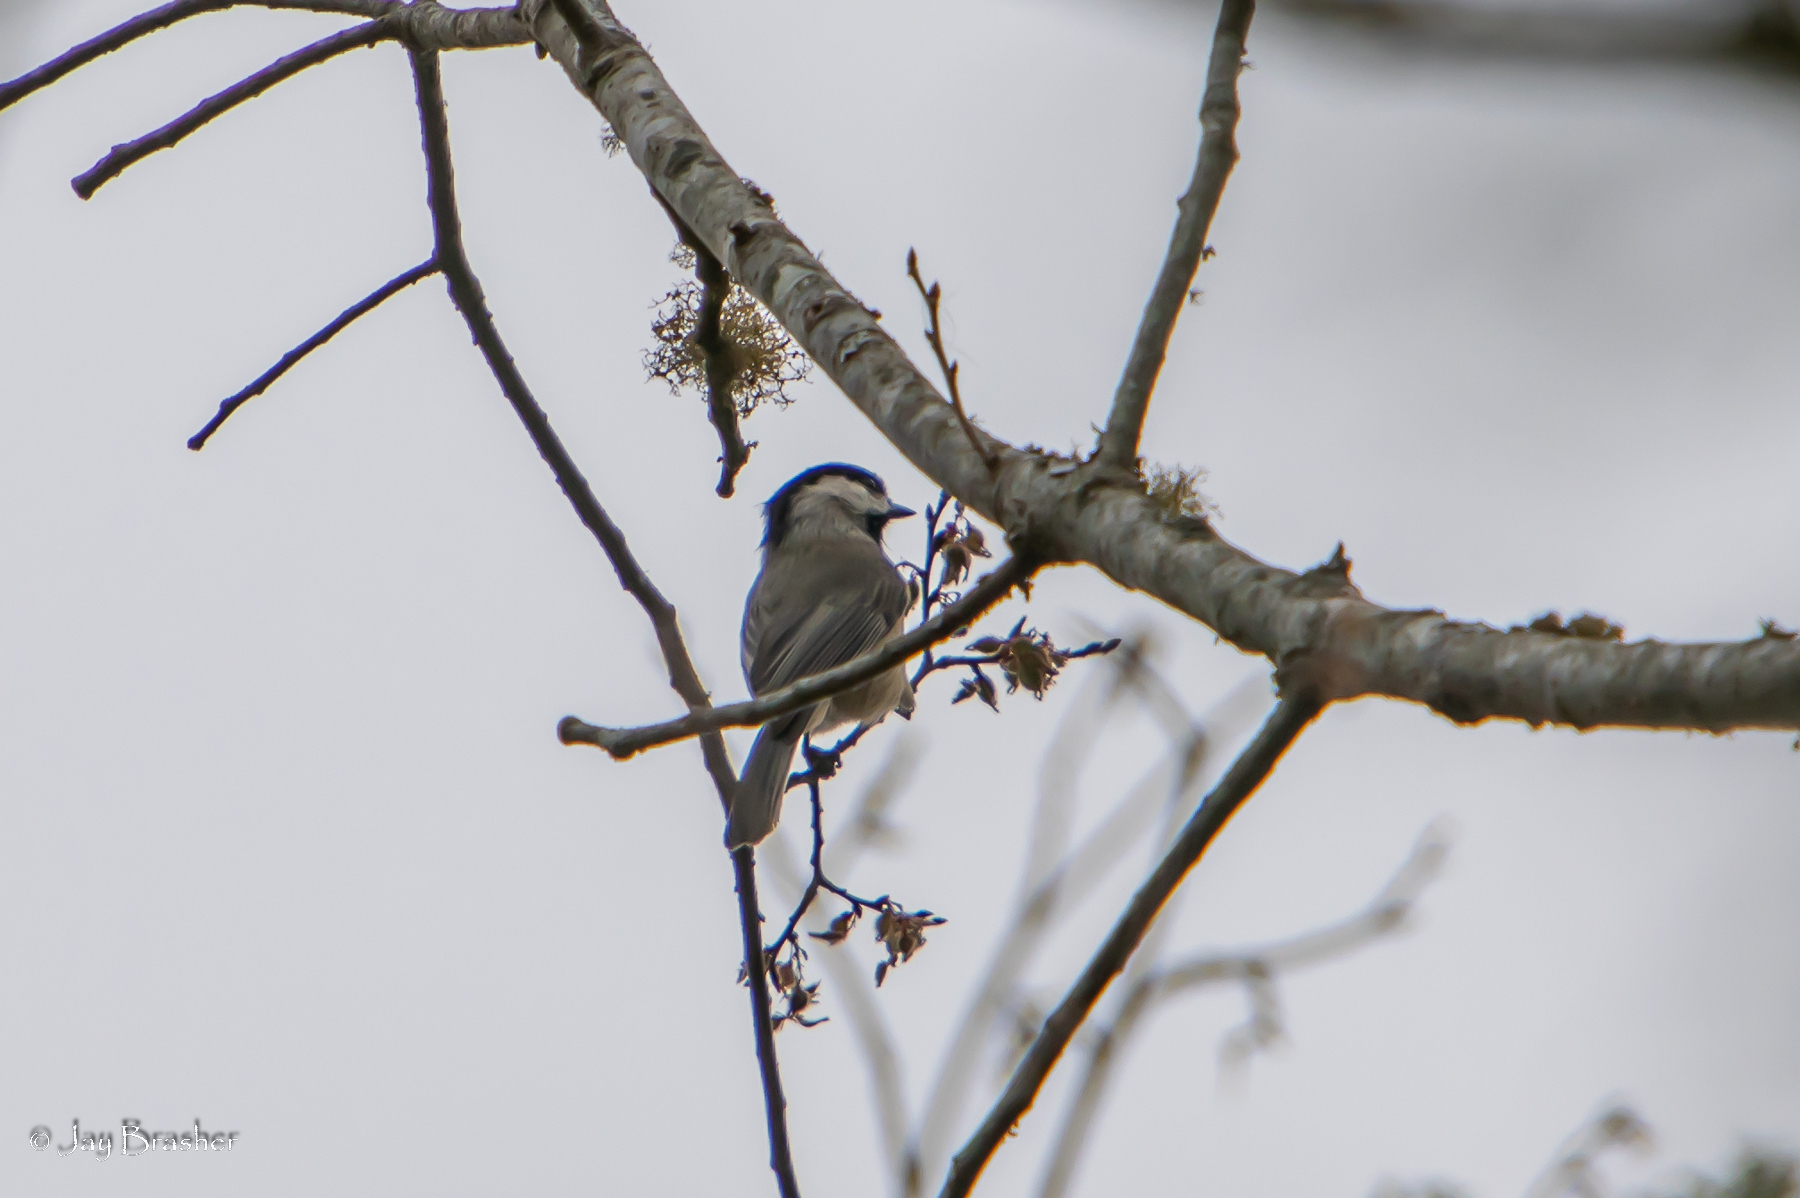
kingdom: Animalia
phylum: Chordata
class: Aves
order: Passeriformes
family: Paridae
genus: Poecile
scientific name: Poecile carolinensis
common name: Carolina chickadee
